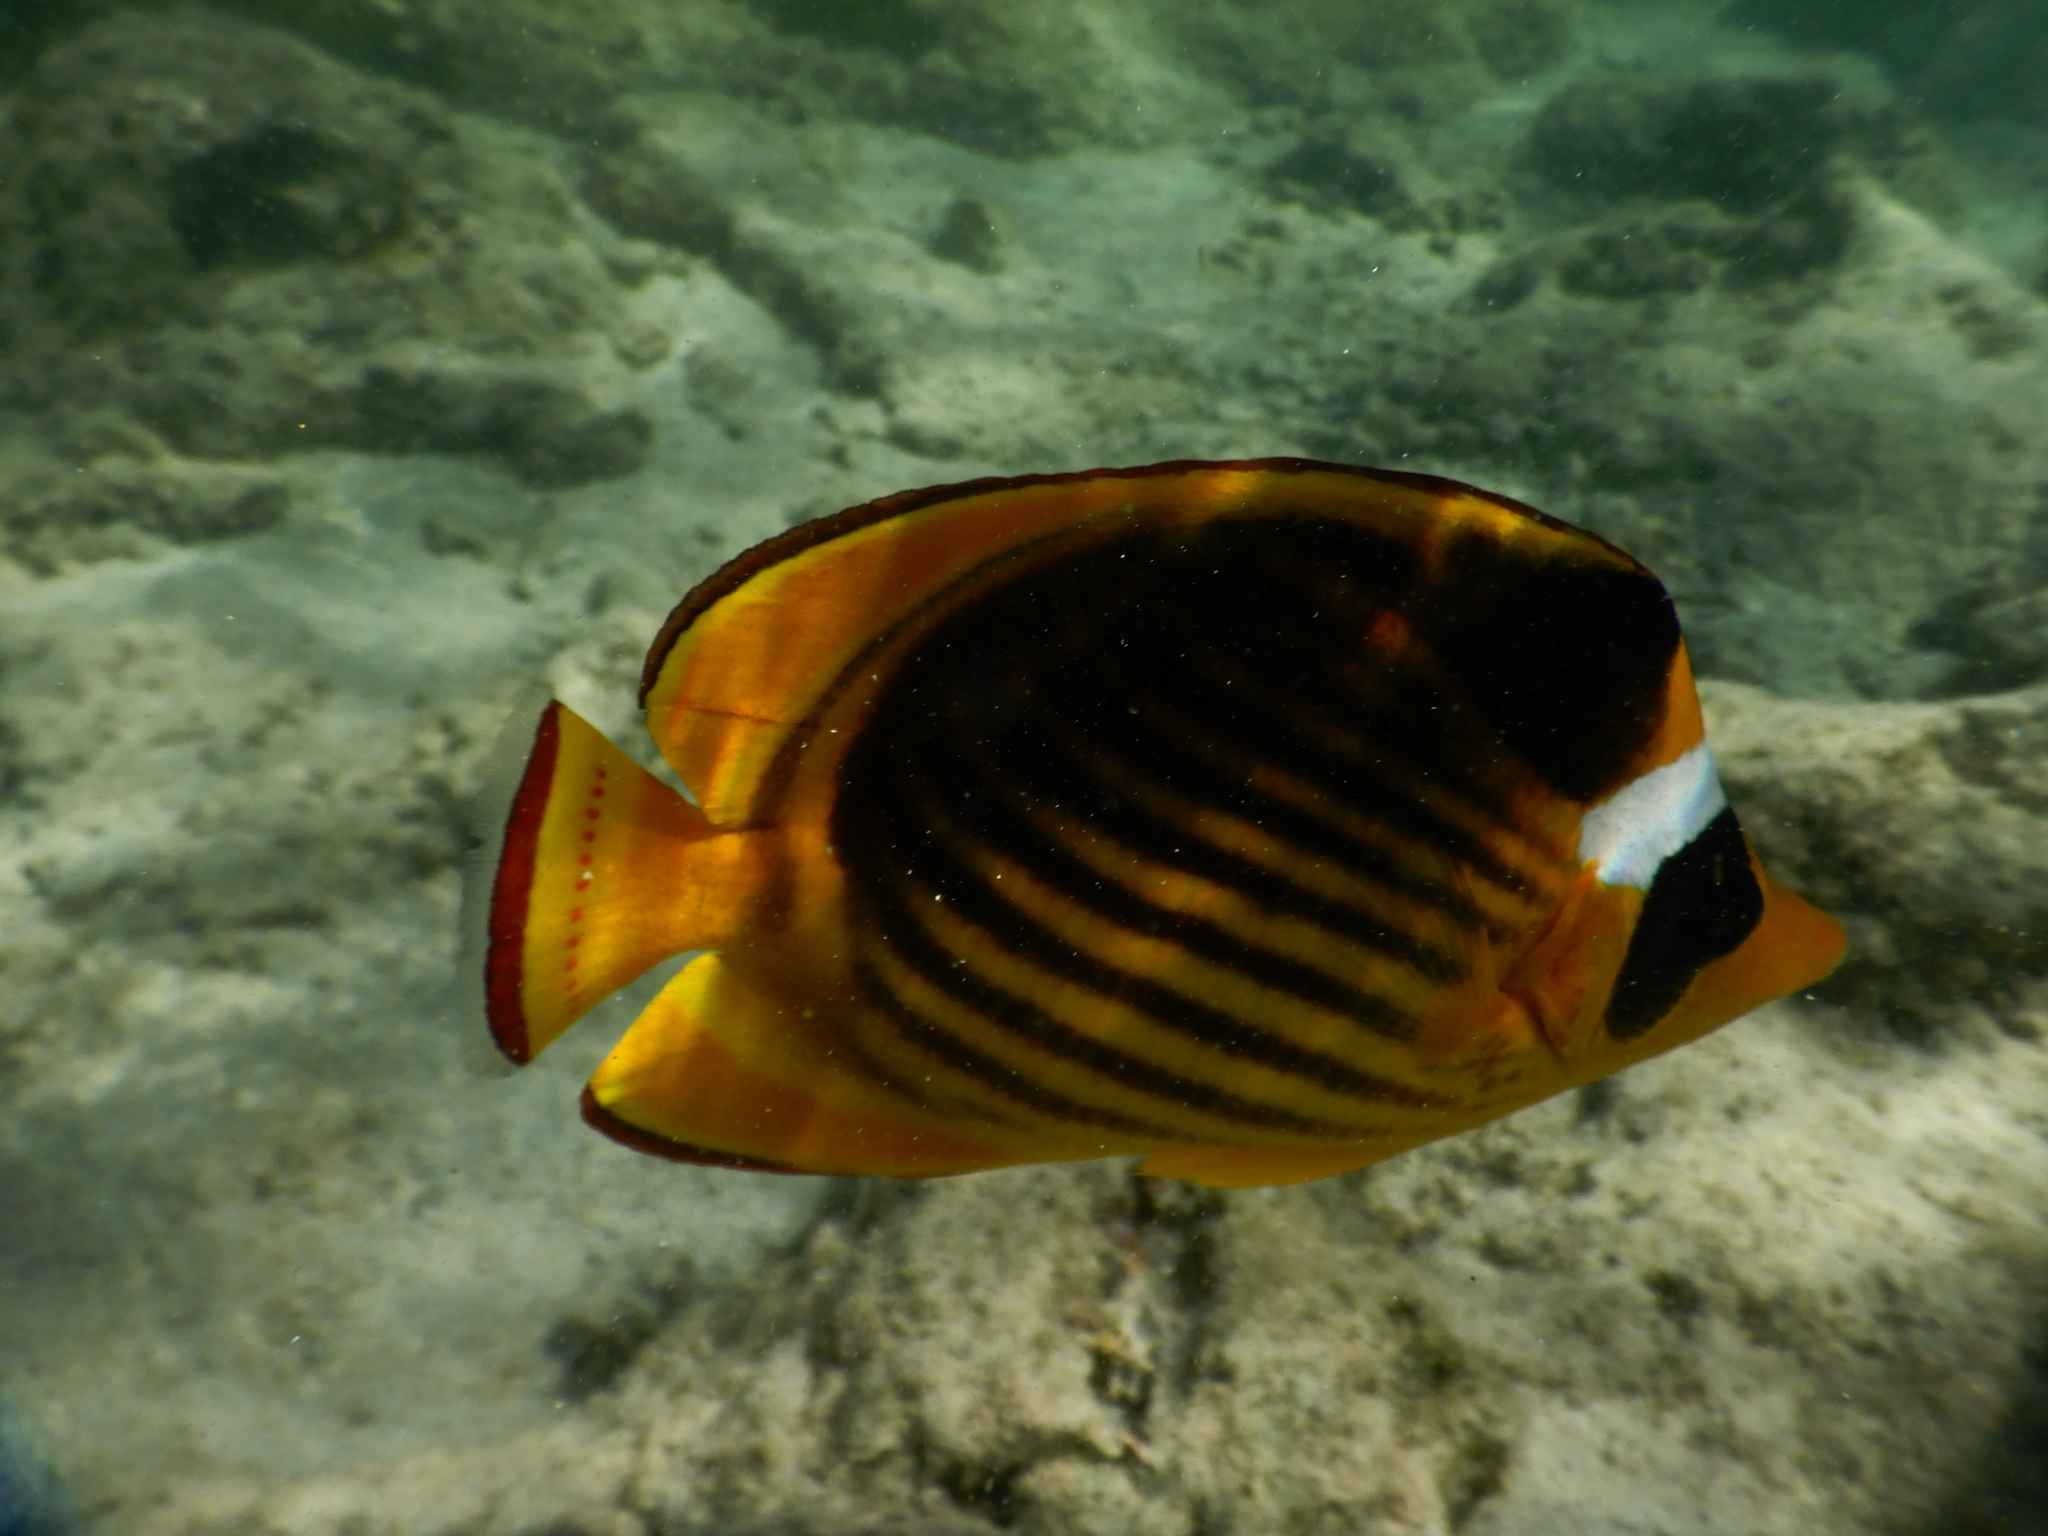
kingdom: Animalia
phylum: Chordata
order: Perciformes
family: Chaetodontidae
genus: Chaetodon
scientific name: Chaetodon fasciatus
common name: Diagonal butterflyfish
